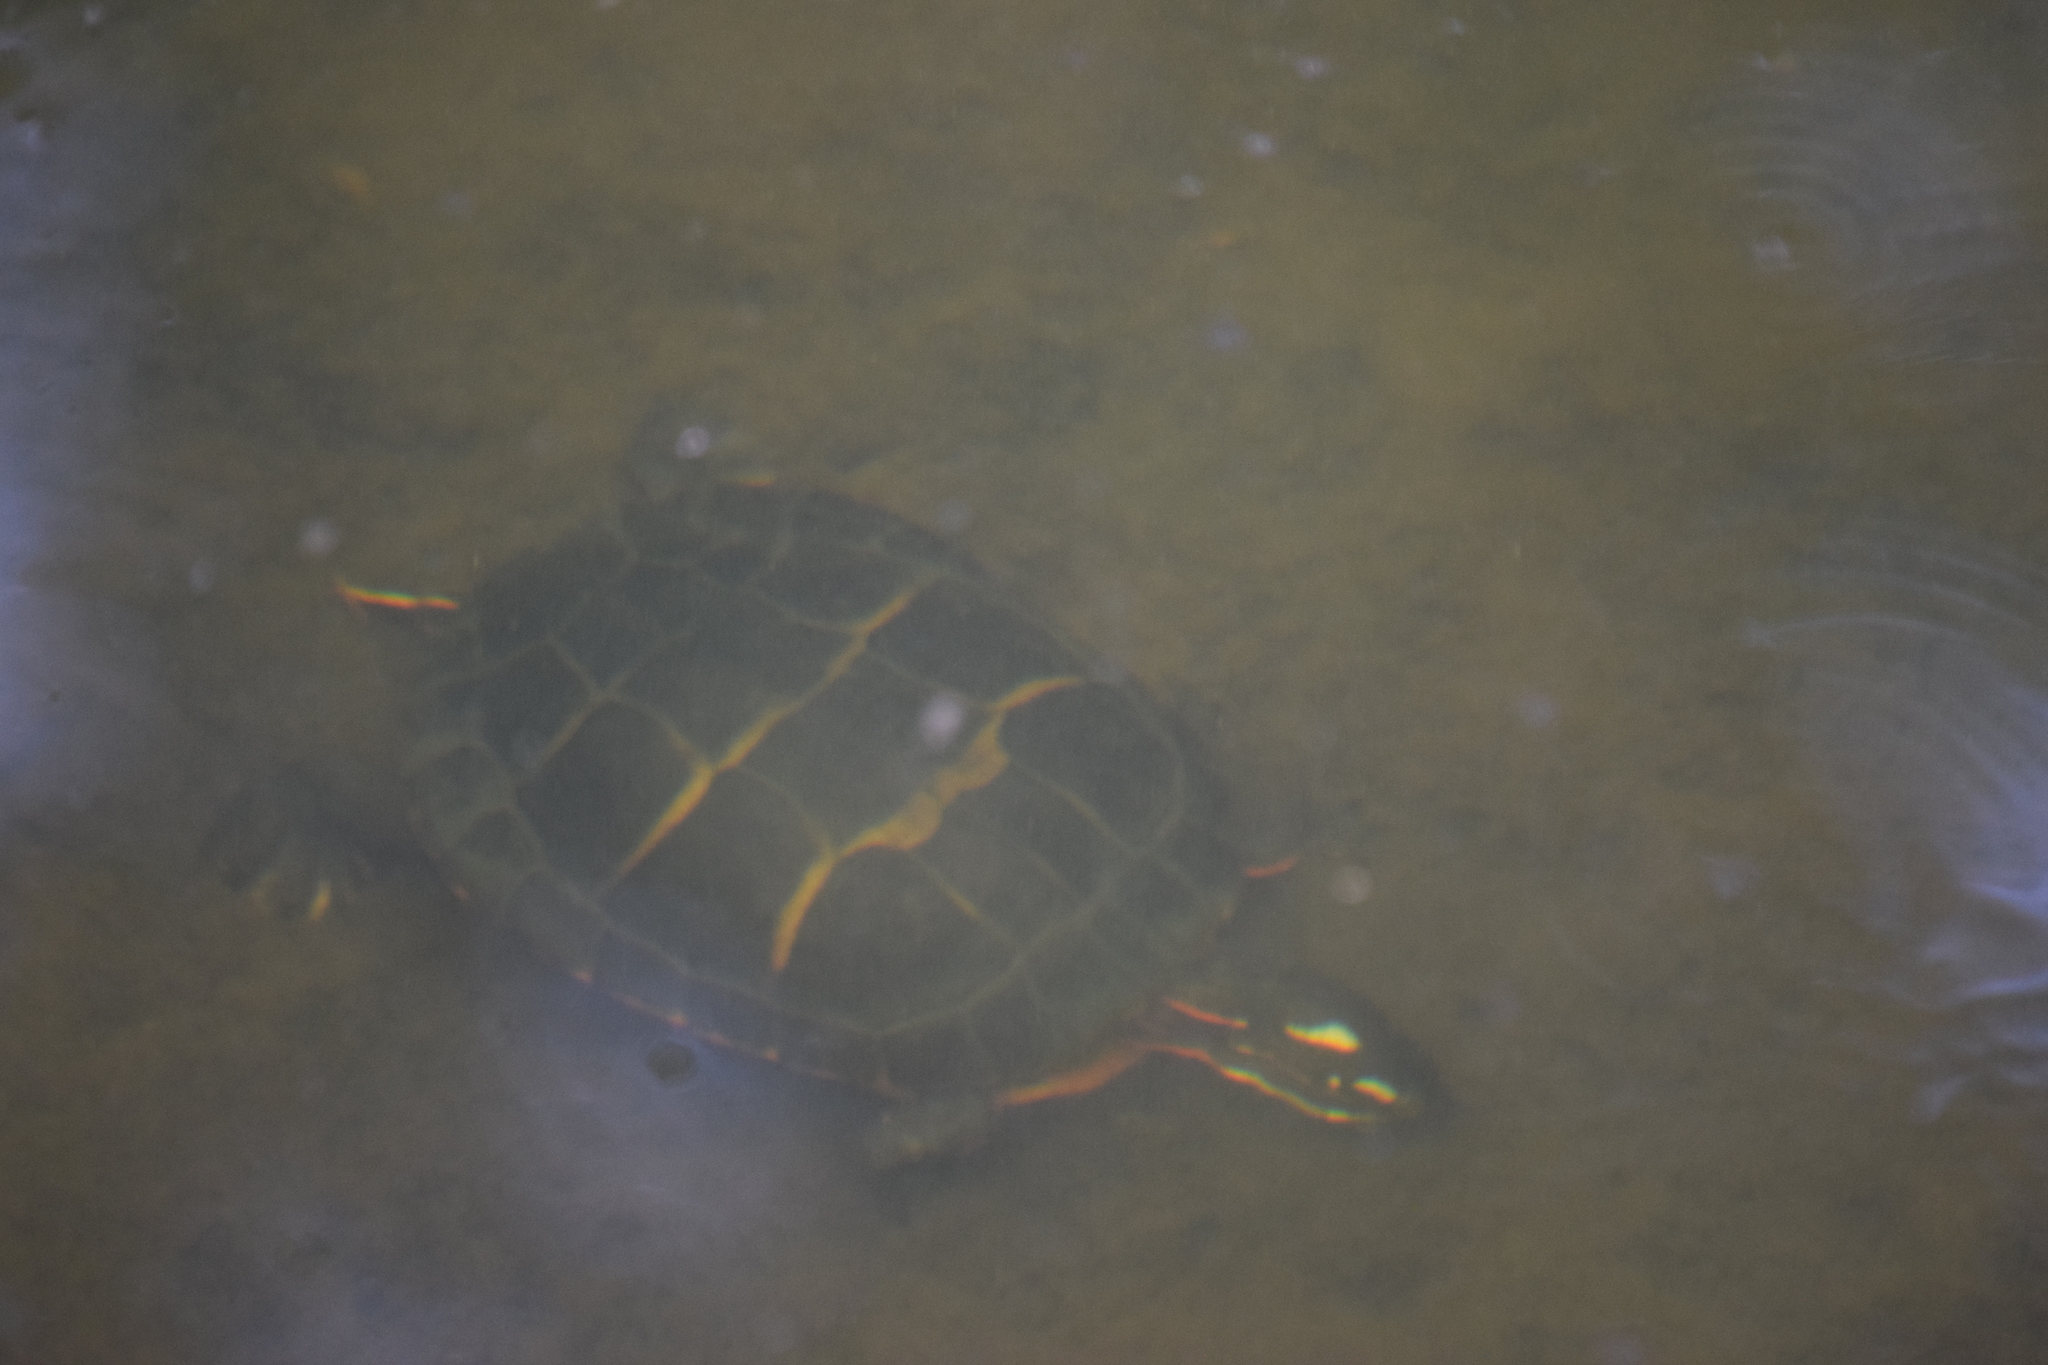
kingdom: Animalia
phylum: Chordata
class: Testudines
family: Emydidae
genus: Chrysemys
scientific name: Chrysemys picta
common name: Painted turtle
